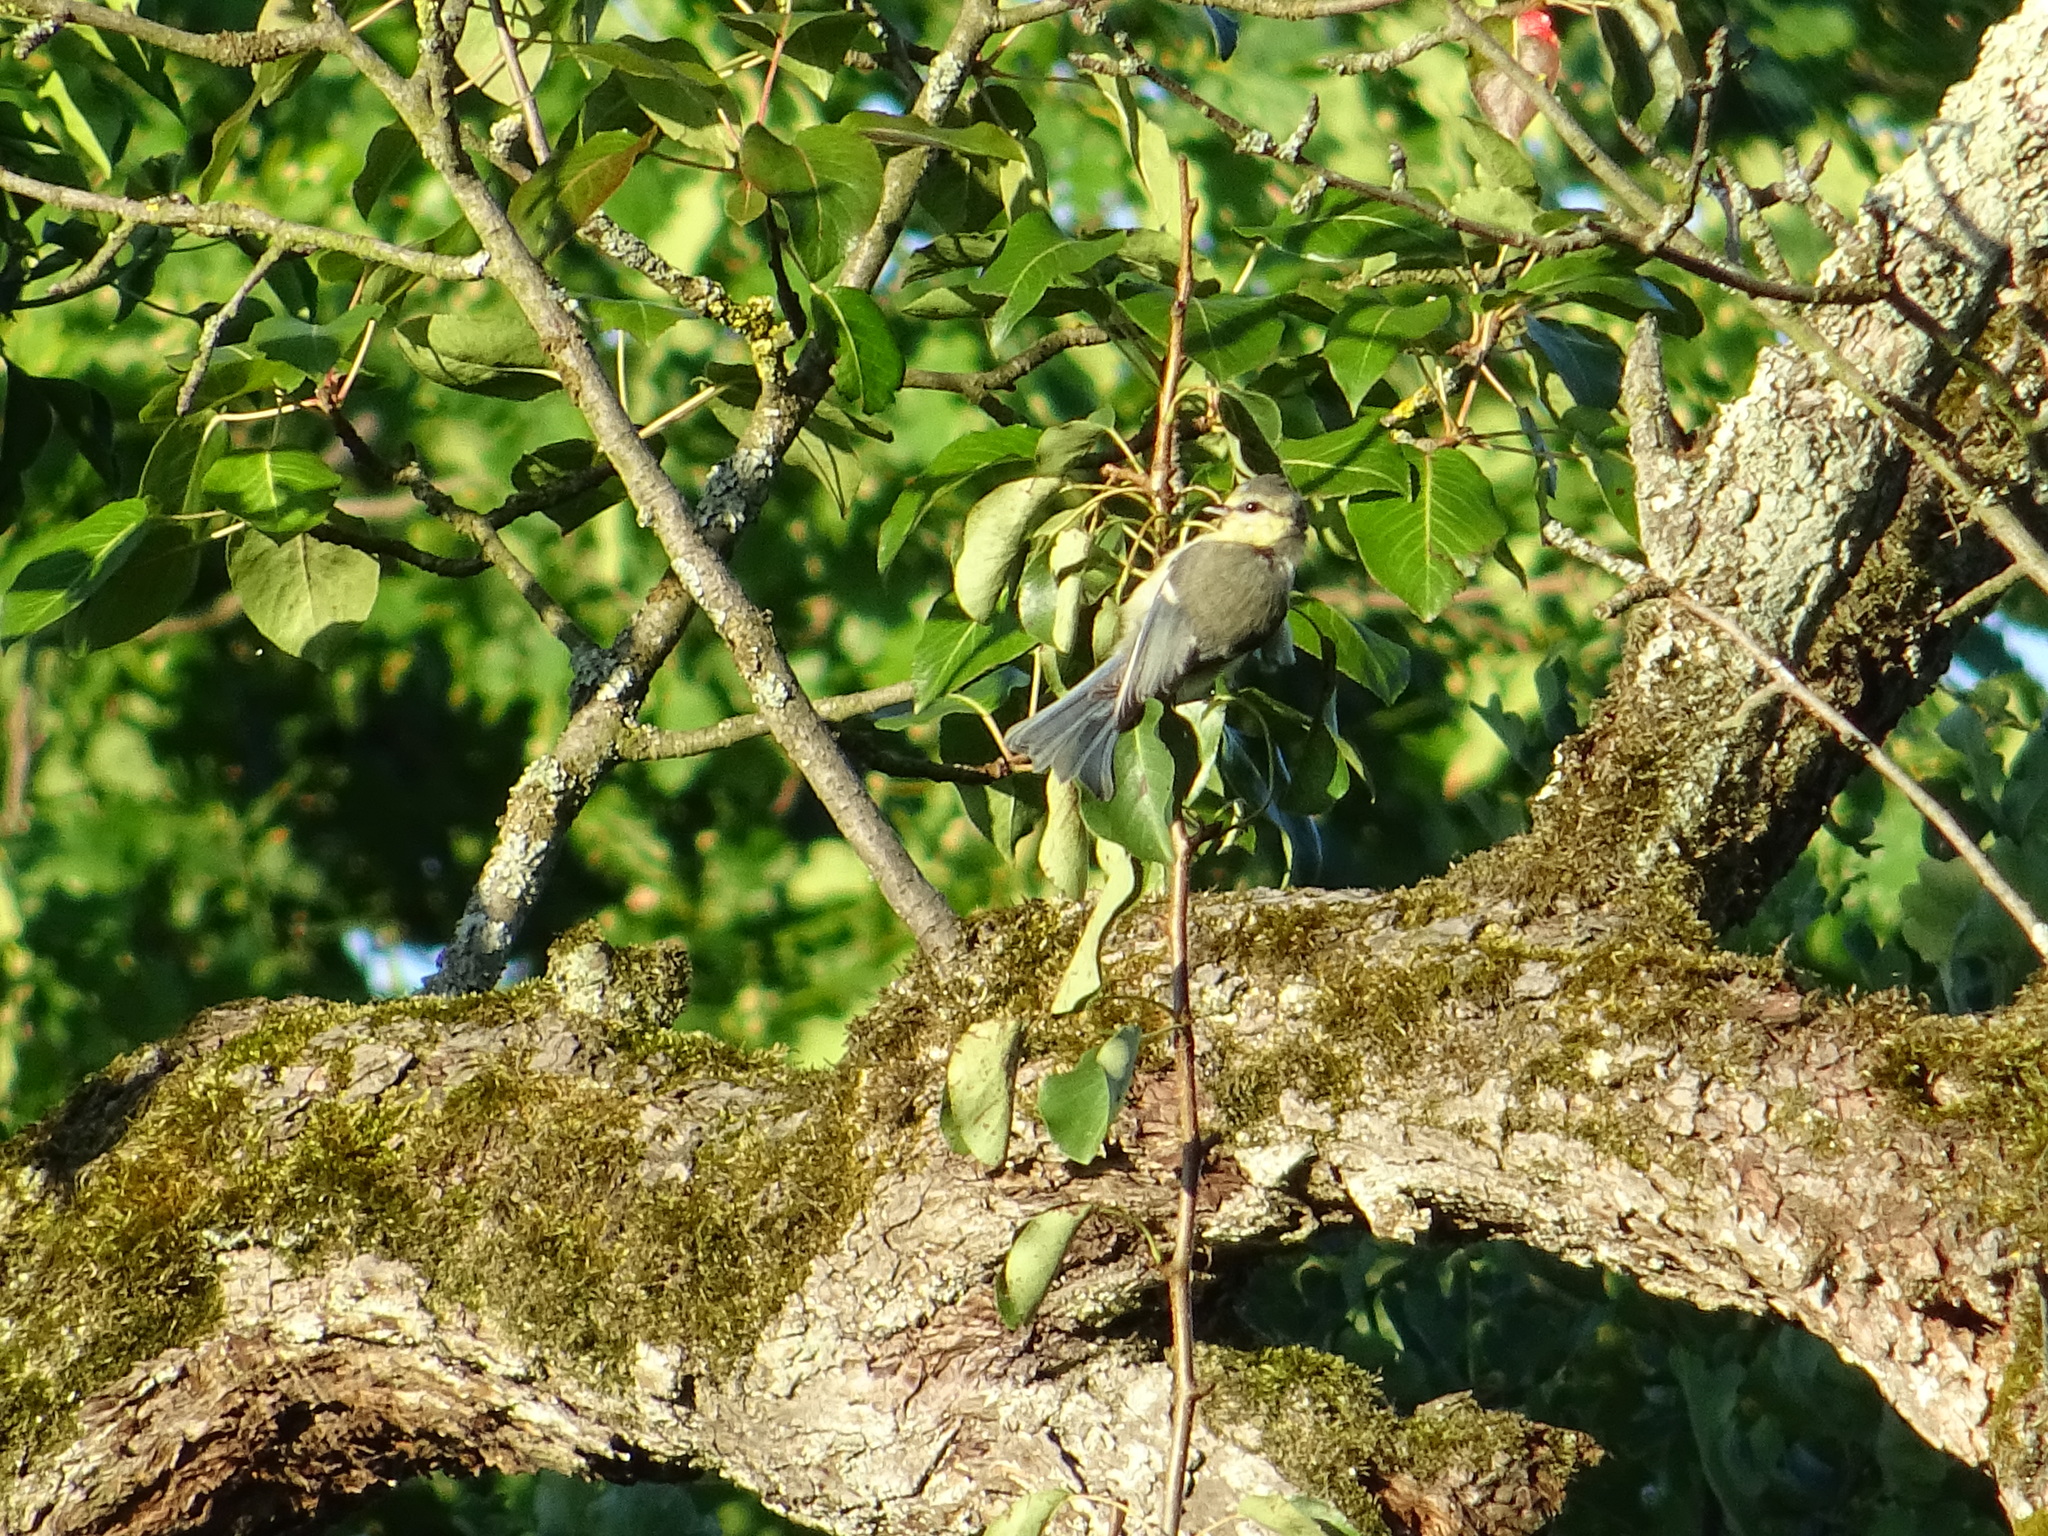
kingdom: Animalia
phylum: Chordata
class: Aves
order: Passeriformes
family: Paridae
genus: Cyanistes
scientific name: Cyanistes caeruleus
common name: Eurasian blue tit
